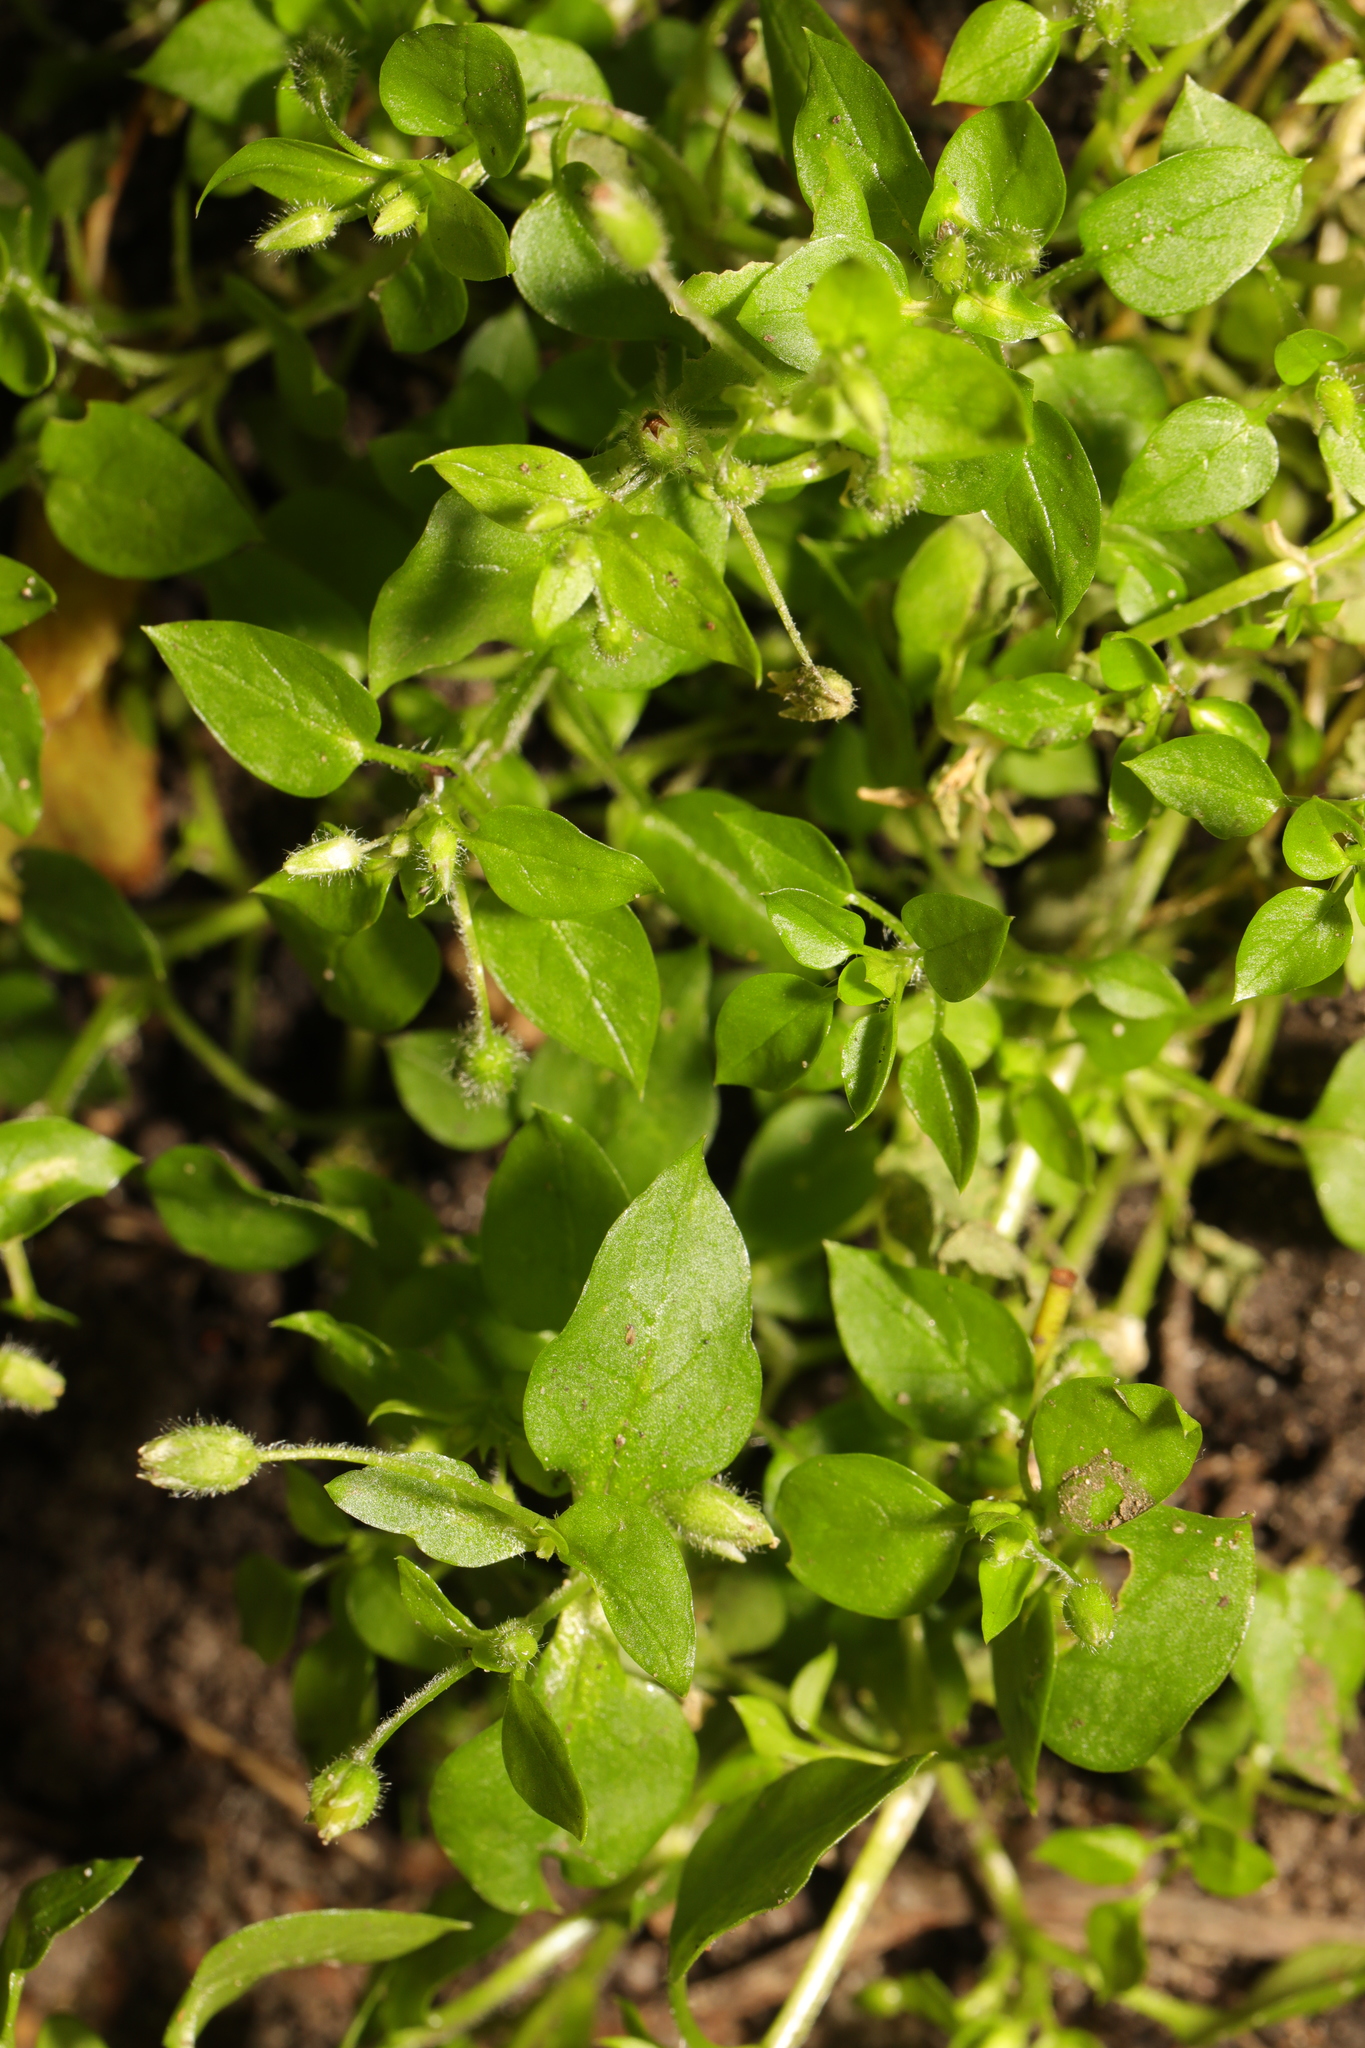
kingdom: Plantae
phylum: Tracheophyta
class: Magnoliopsida
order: Caryophyllales
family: Caryophyllaceae
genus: Stellaria
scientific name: Stellaria media
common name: Common chickweed
